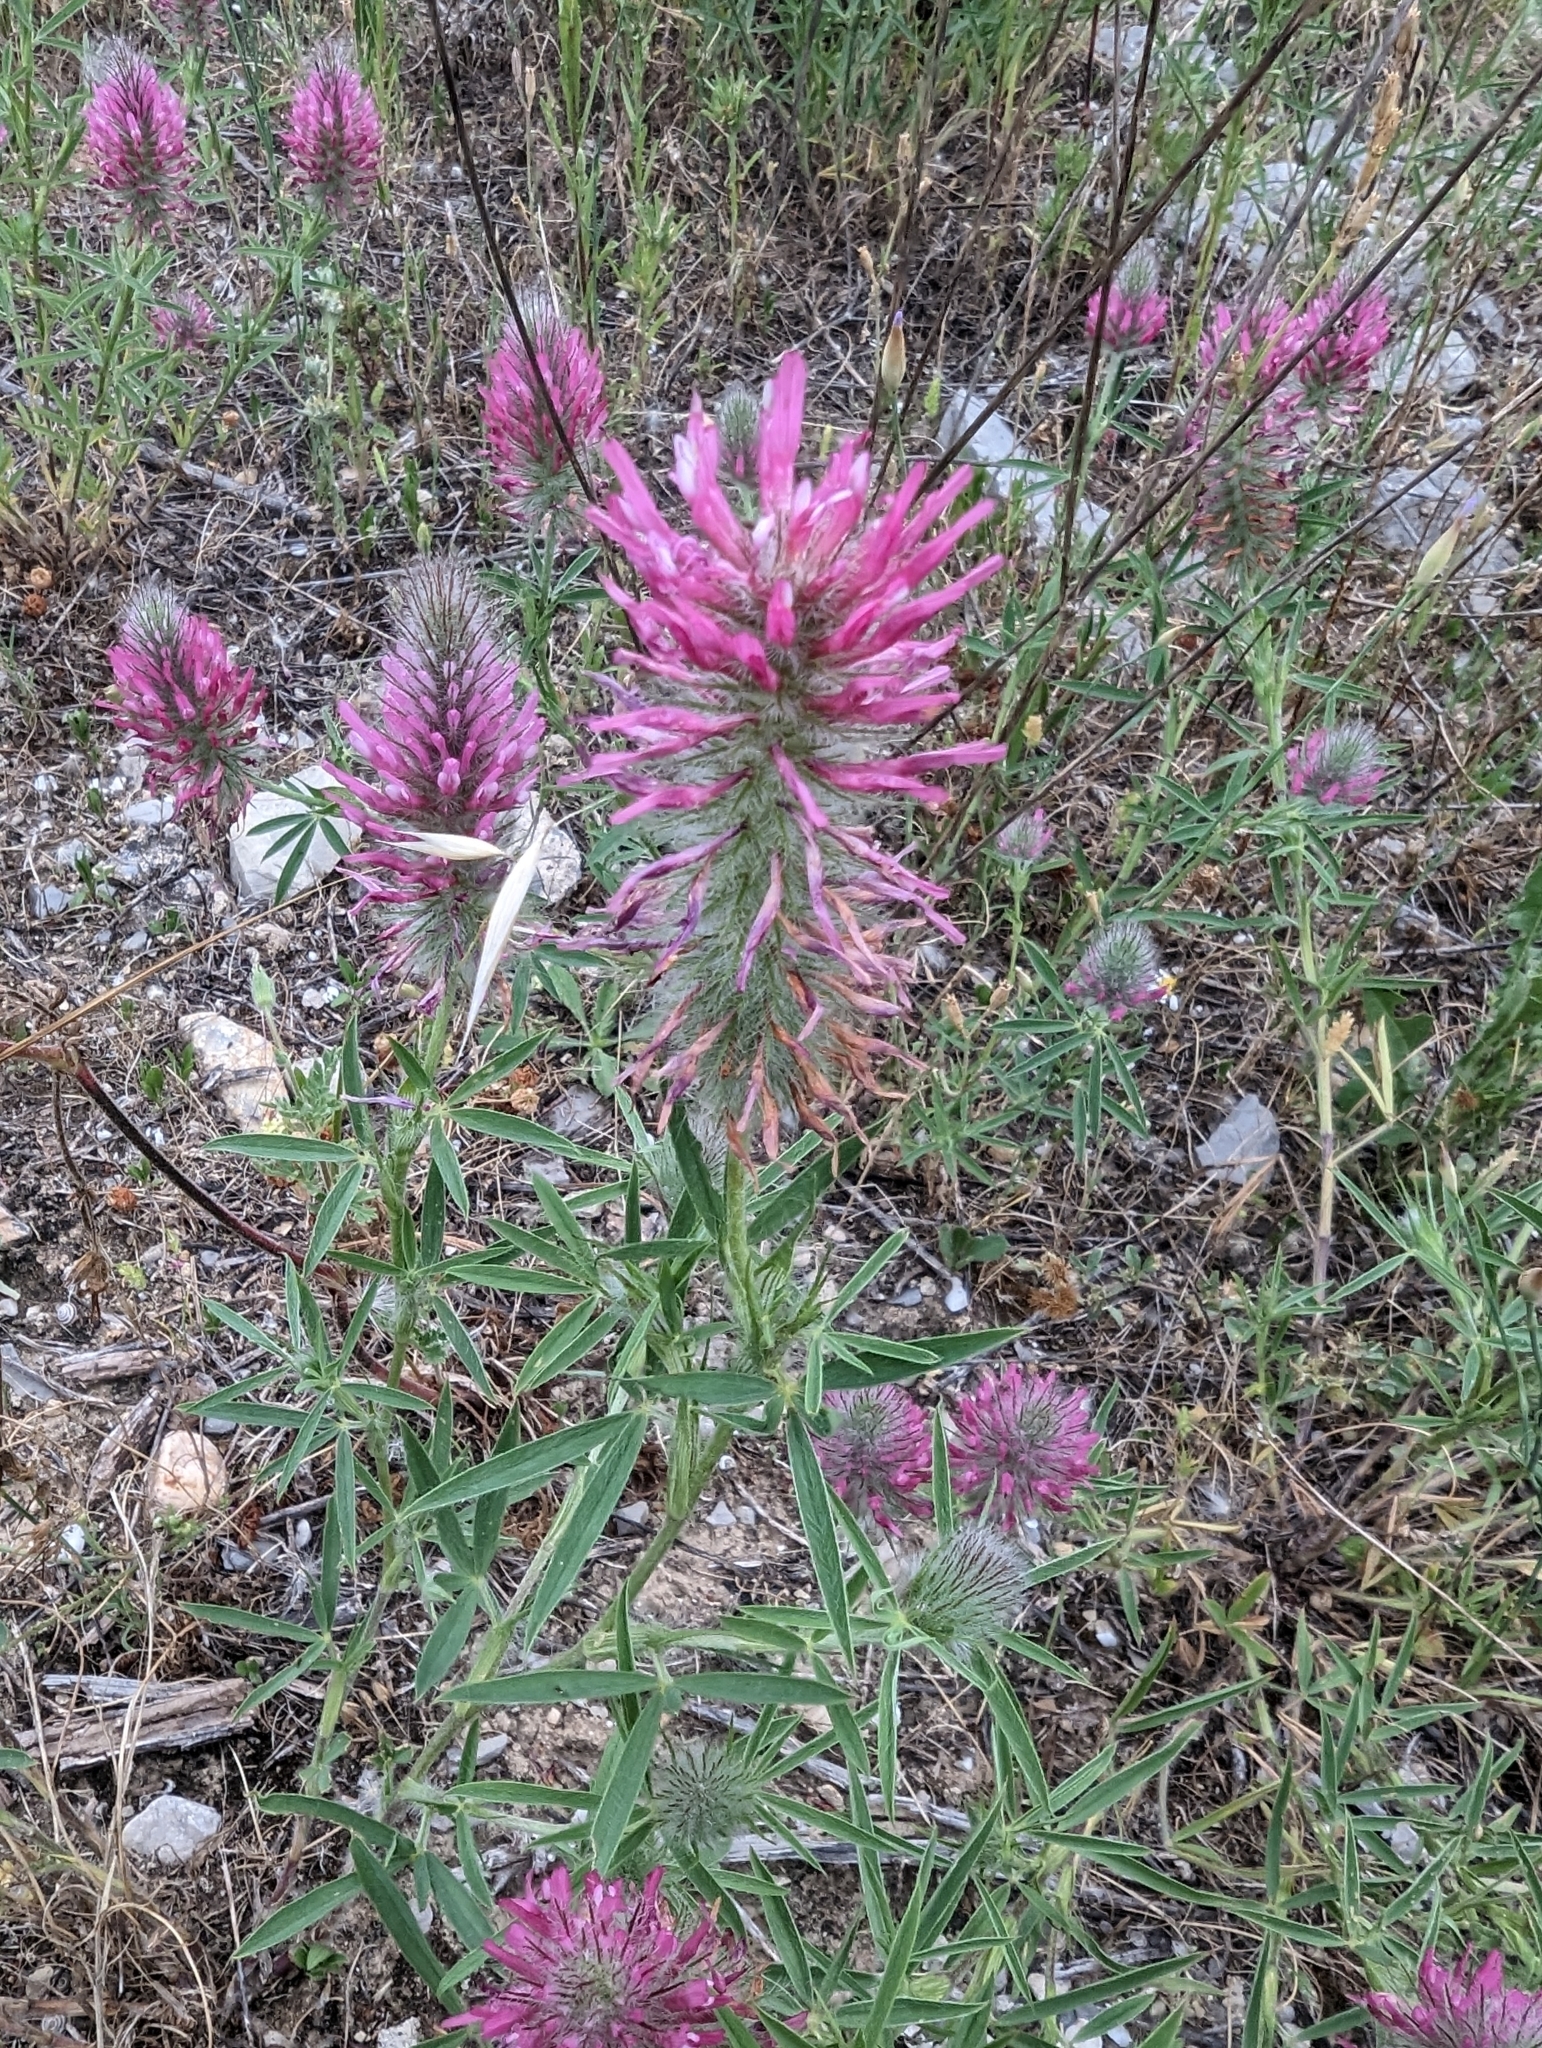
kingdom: Plantae
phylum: Tracheophyta
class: Magnoliopsida
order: Fabales
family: Fabaceae
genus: Trifolium
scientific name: Trifolium purpureum
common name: Purple clover
